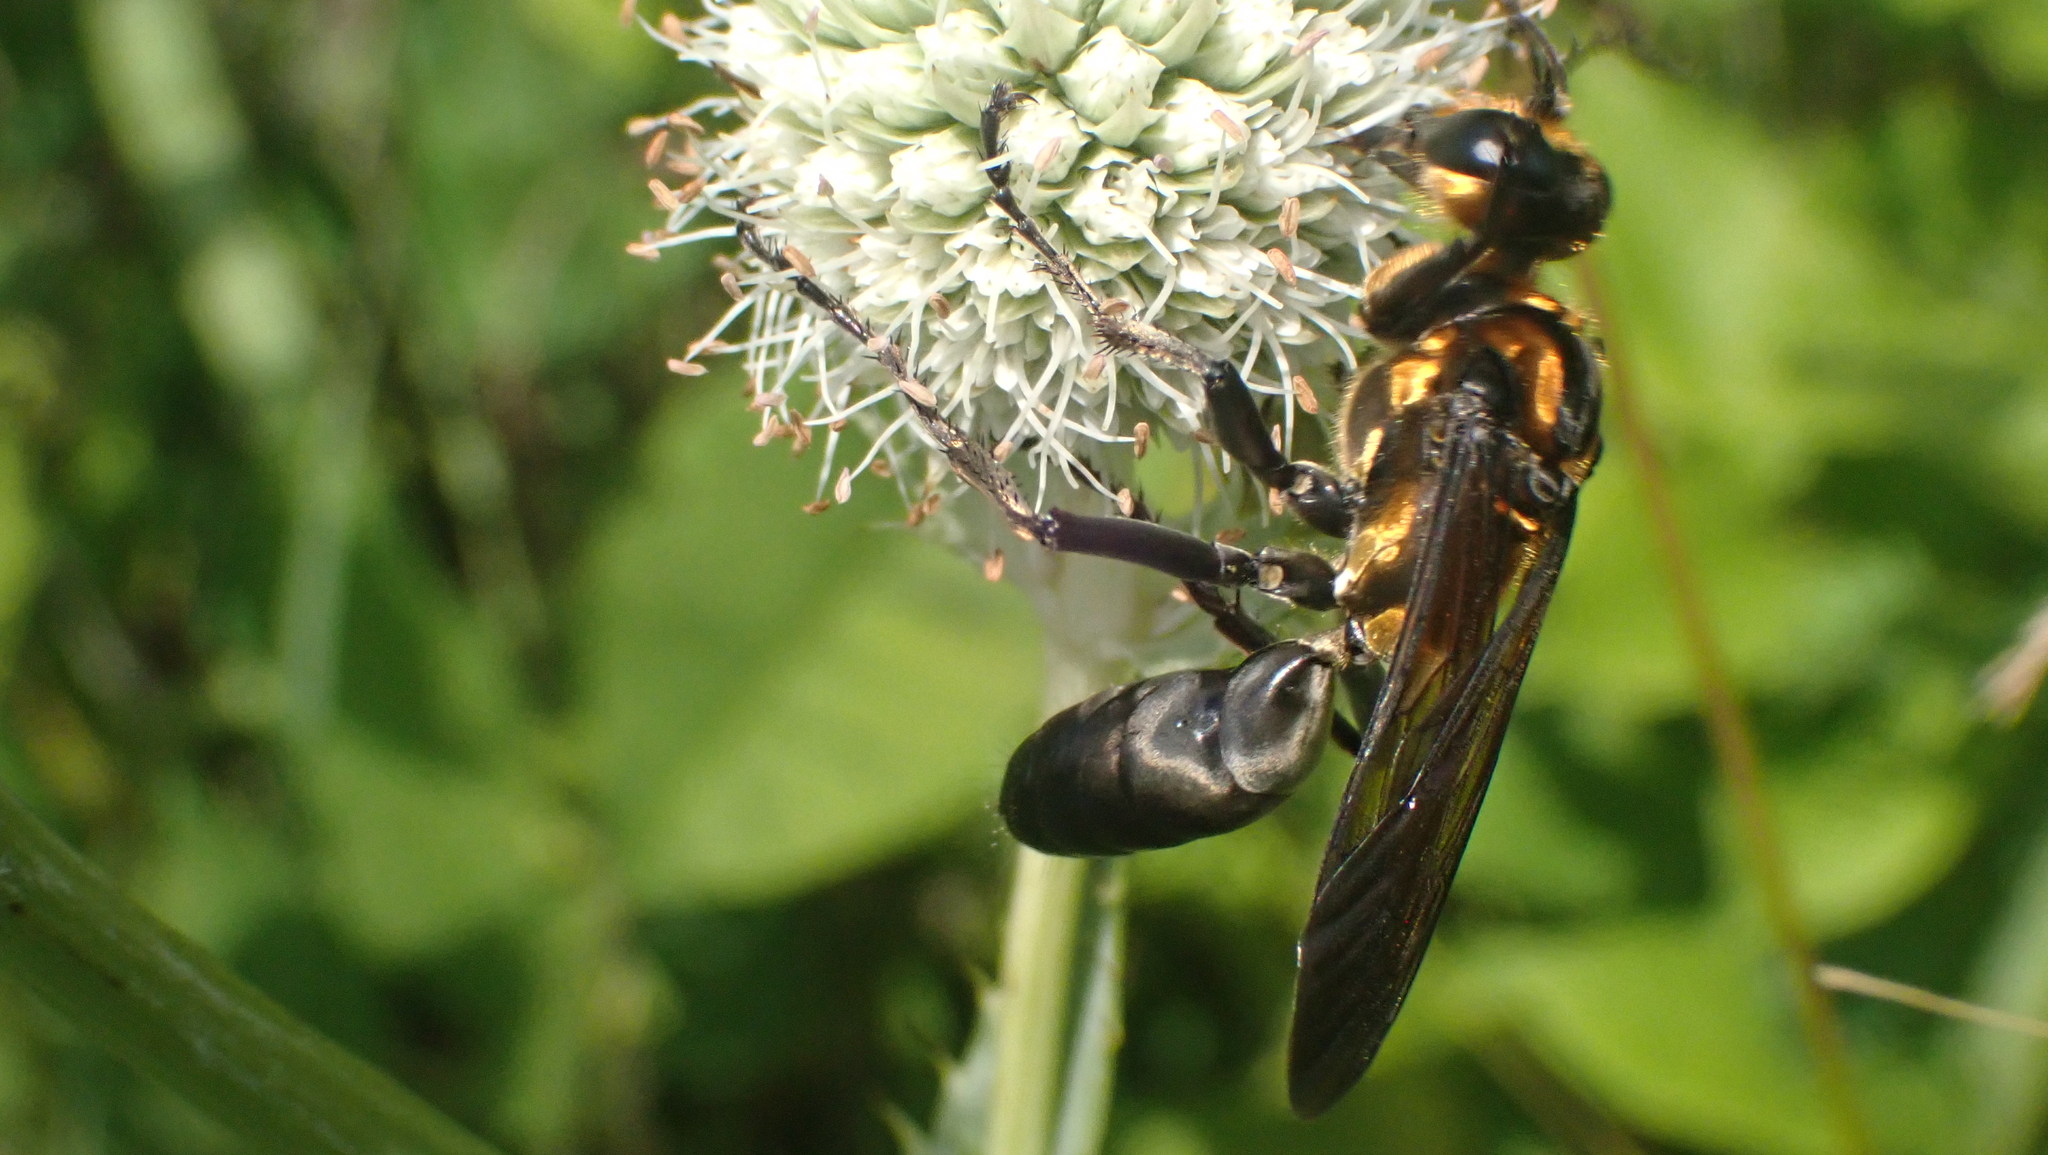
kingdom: Animalia
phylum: Arthropoda
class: Insecta
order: Hymenoptera
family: Sphecidae
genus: Sphex
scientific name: Sphex habenus
